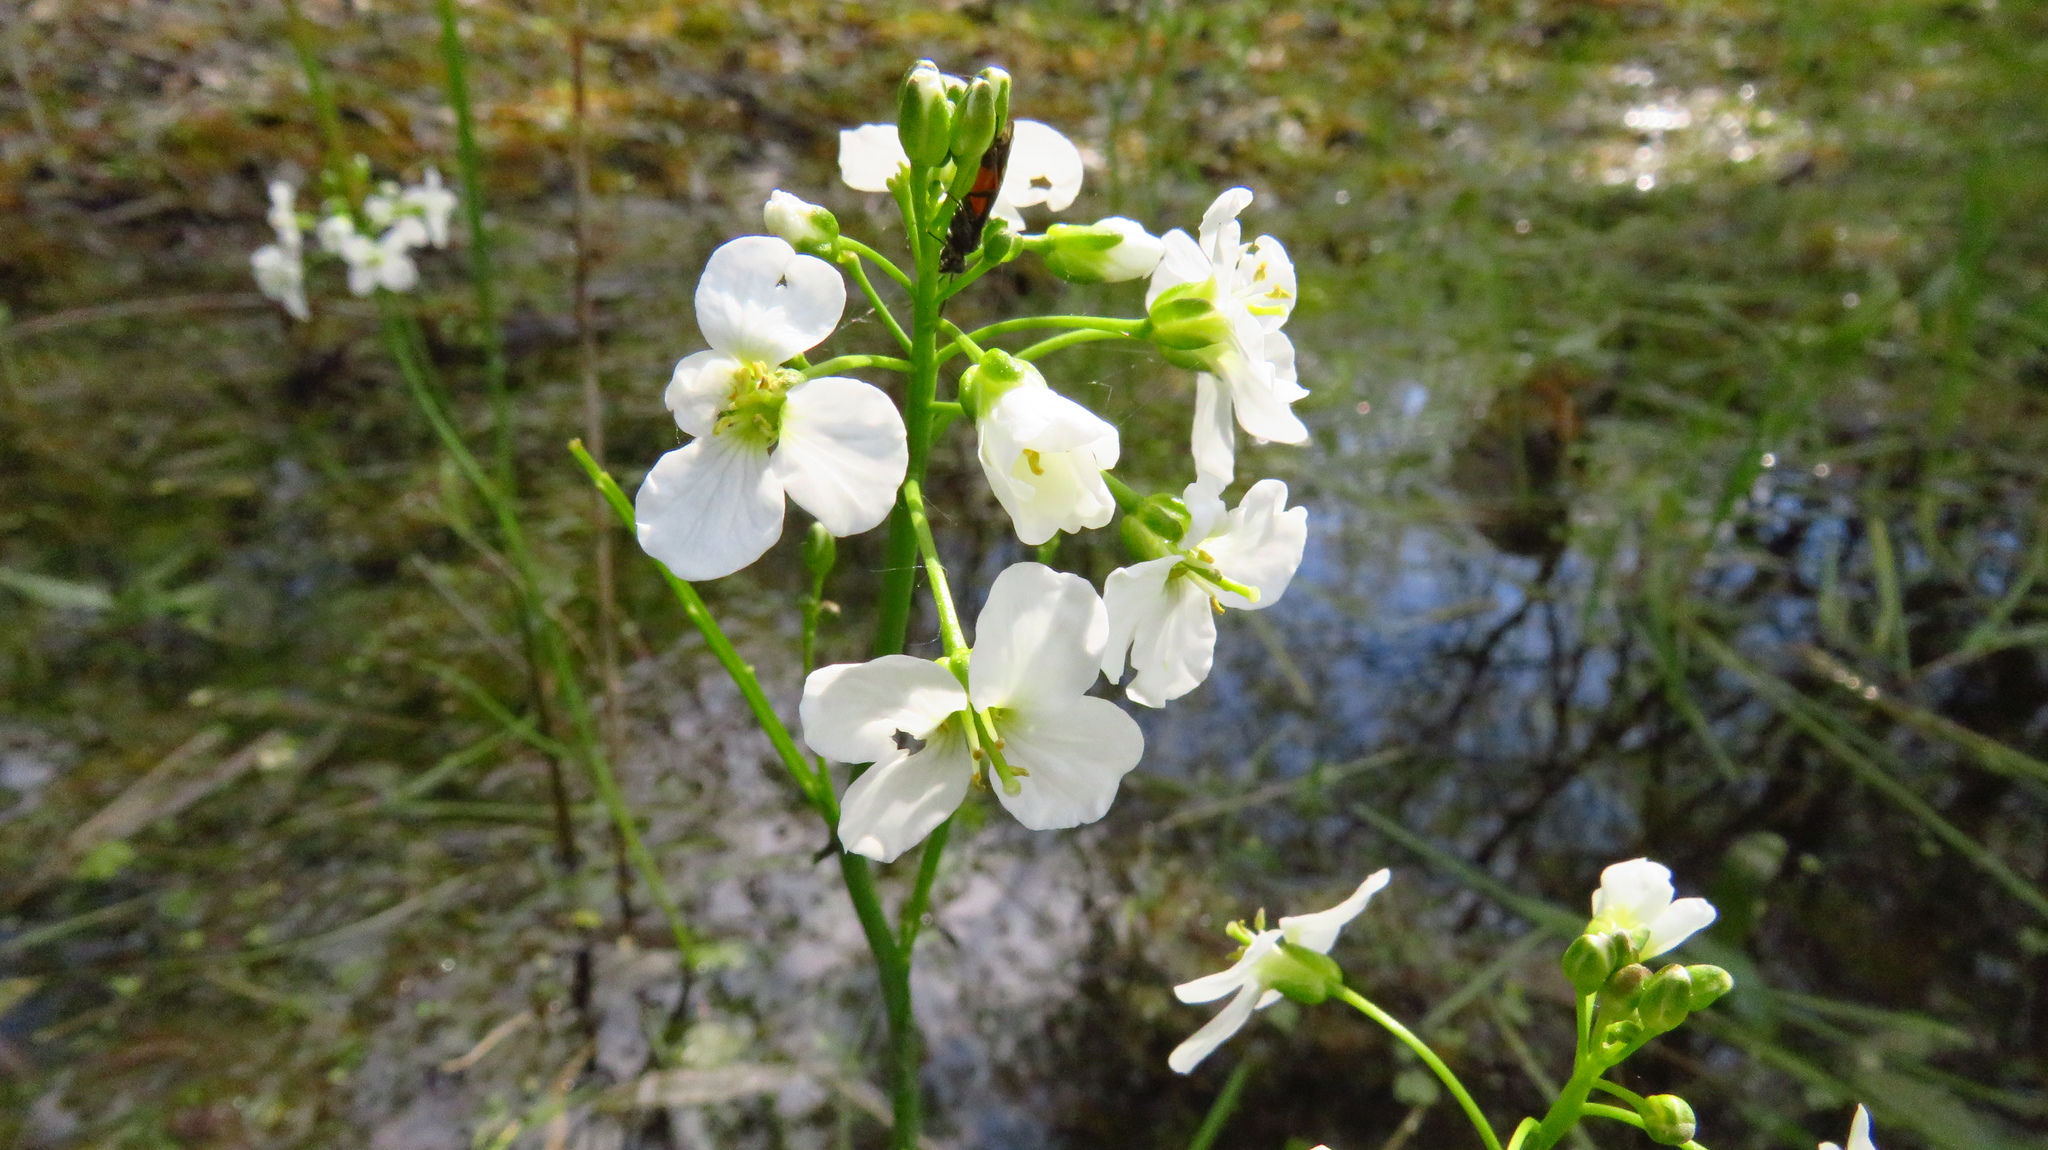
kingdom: Plantae
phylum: Tracheophyta
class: Magnoliopsida
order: Brassicales
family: Brassicaceae
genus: Cardamine
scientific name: Cardamine dentata
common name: Toothed bittercress
